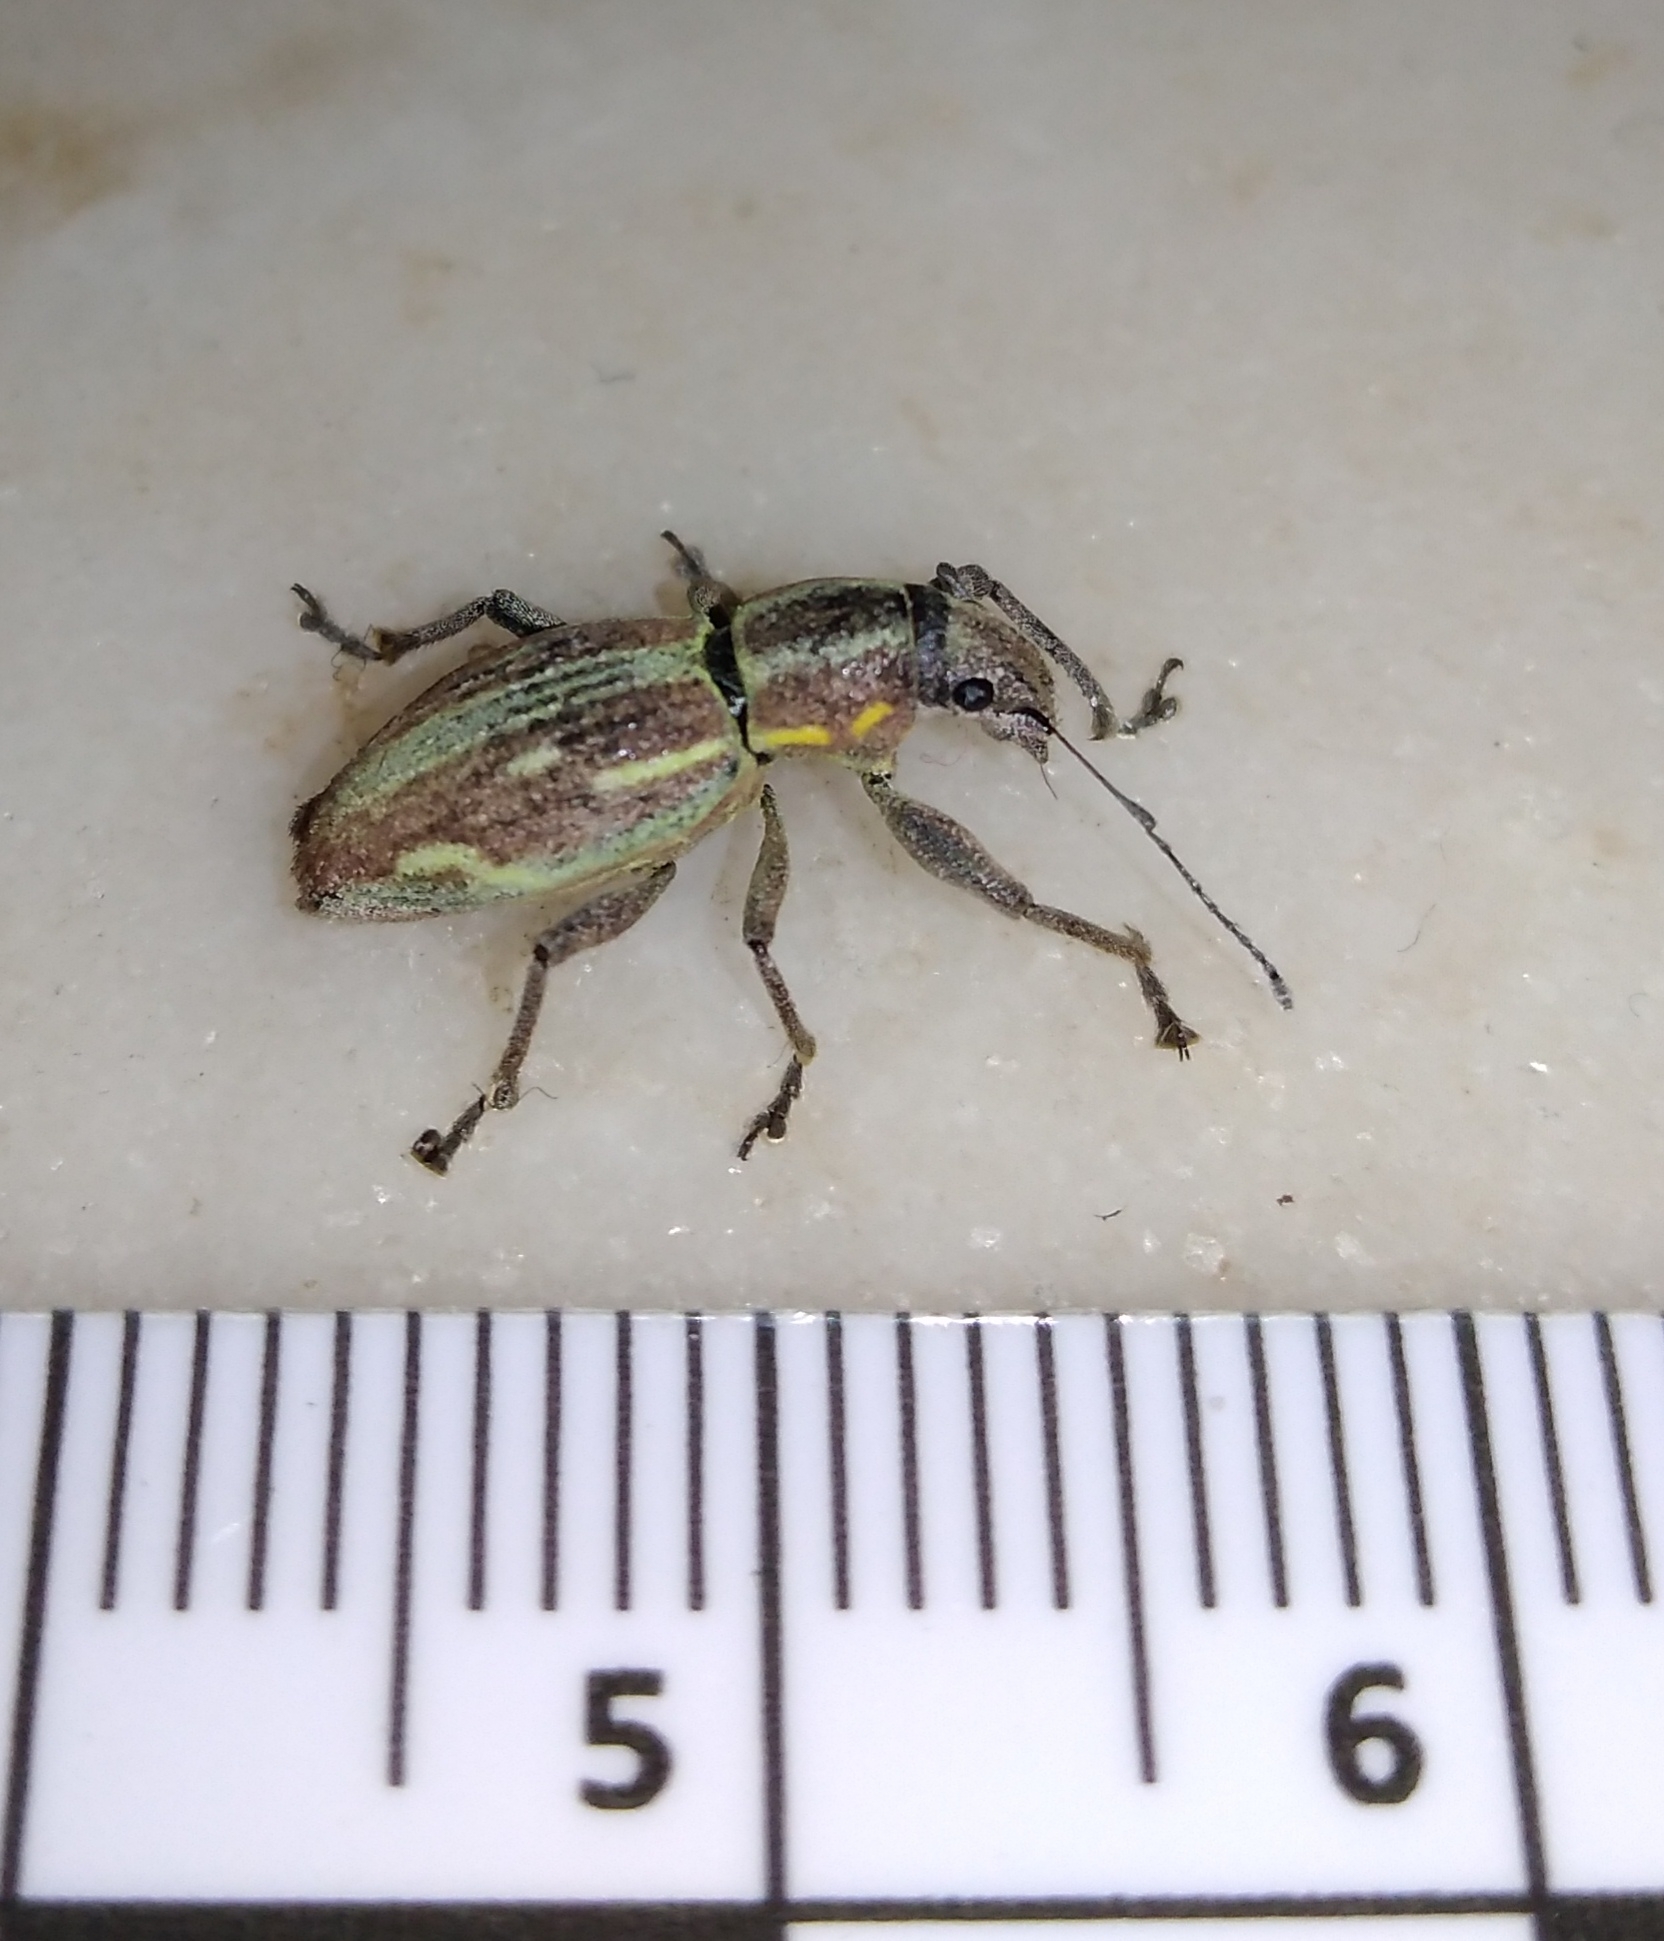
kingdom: Animalia
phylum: Arthropoda
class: Insecta
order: Coleoptera
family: Curculionidae
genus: Naupactus
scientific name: Naupactus xanthographus
